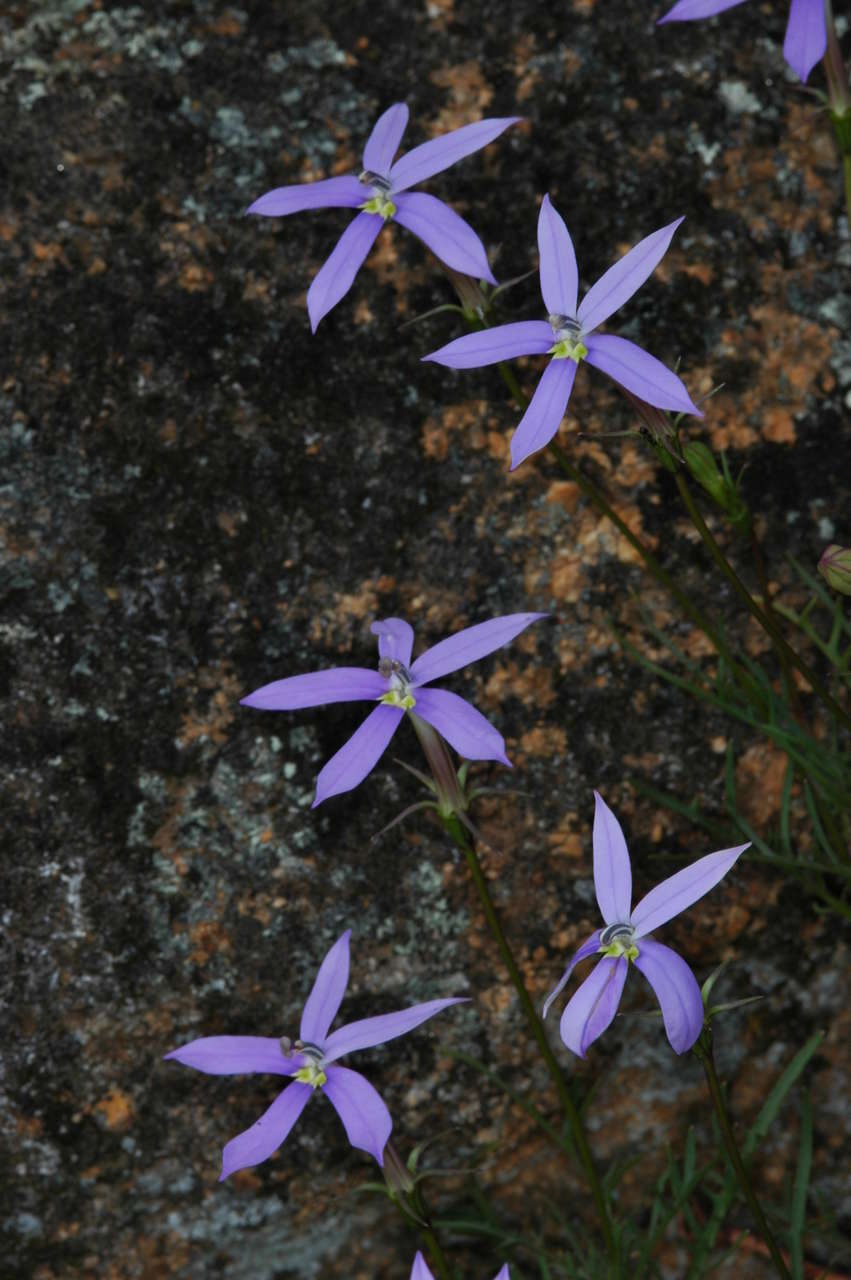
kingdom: Plantae
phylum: Tracheophyta
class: Magnoliopsida
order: Asterales
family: Campanulaceae
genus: Lithotoma
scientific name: Lithotoma axillaris
